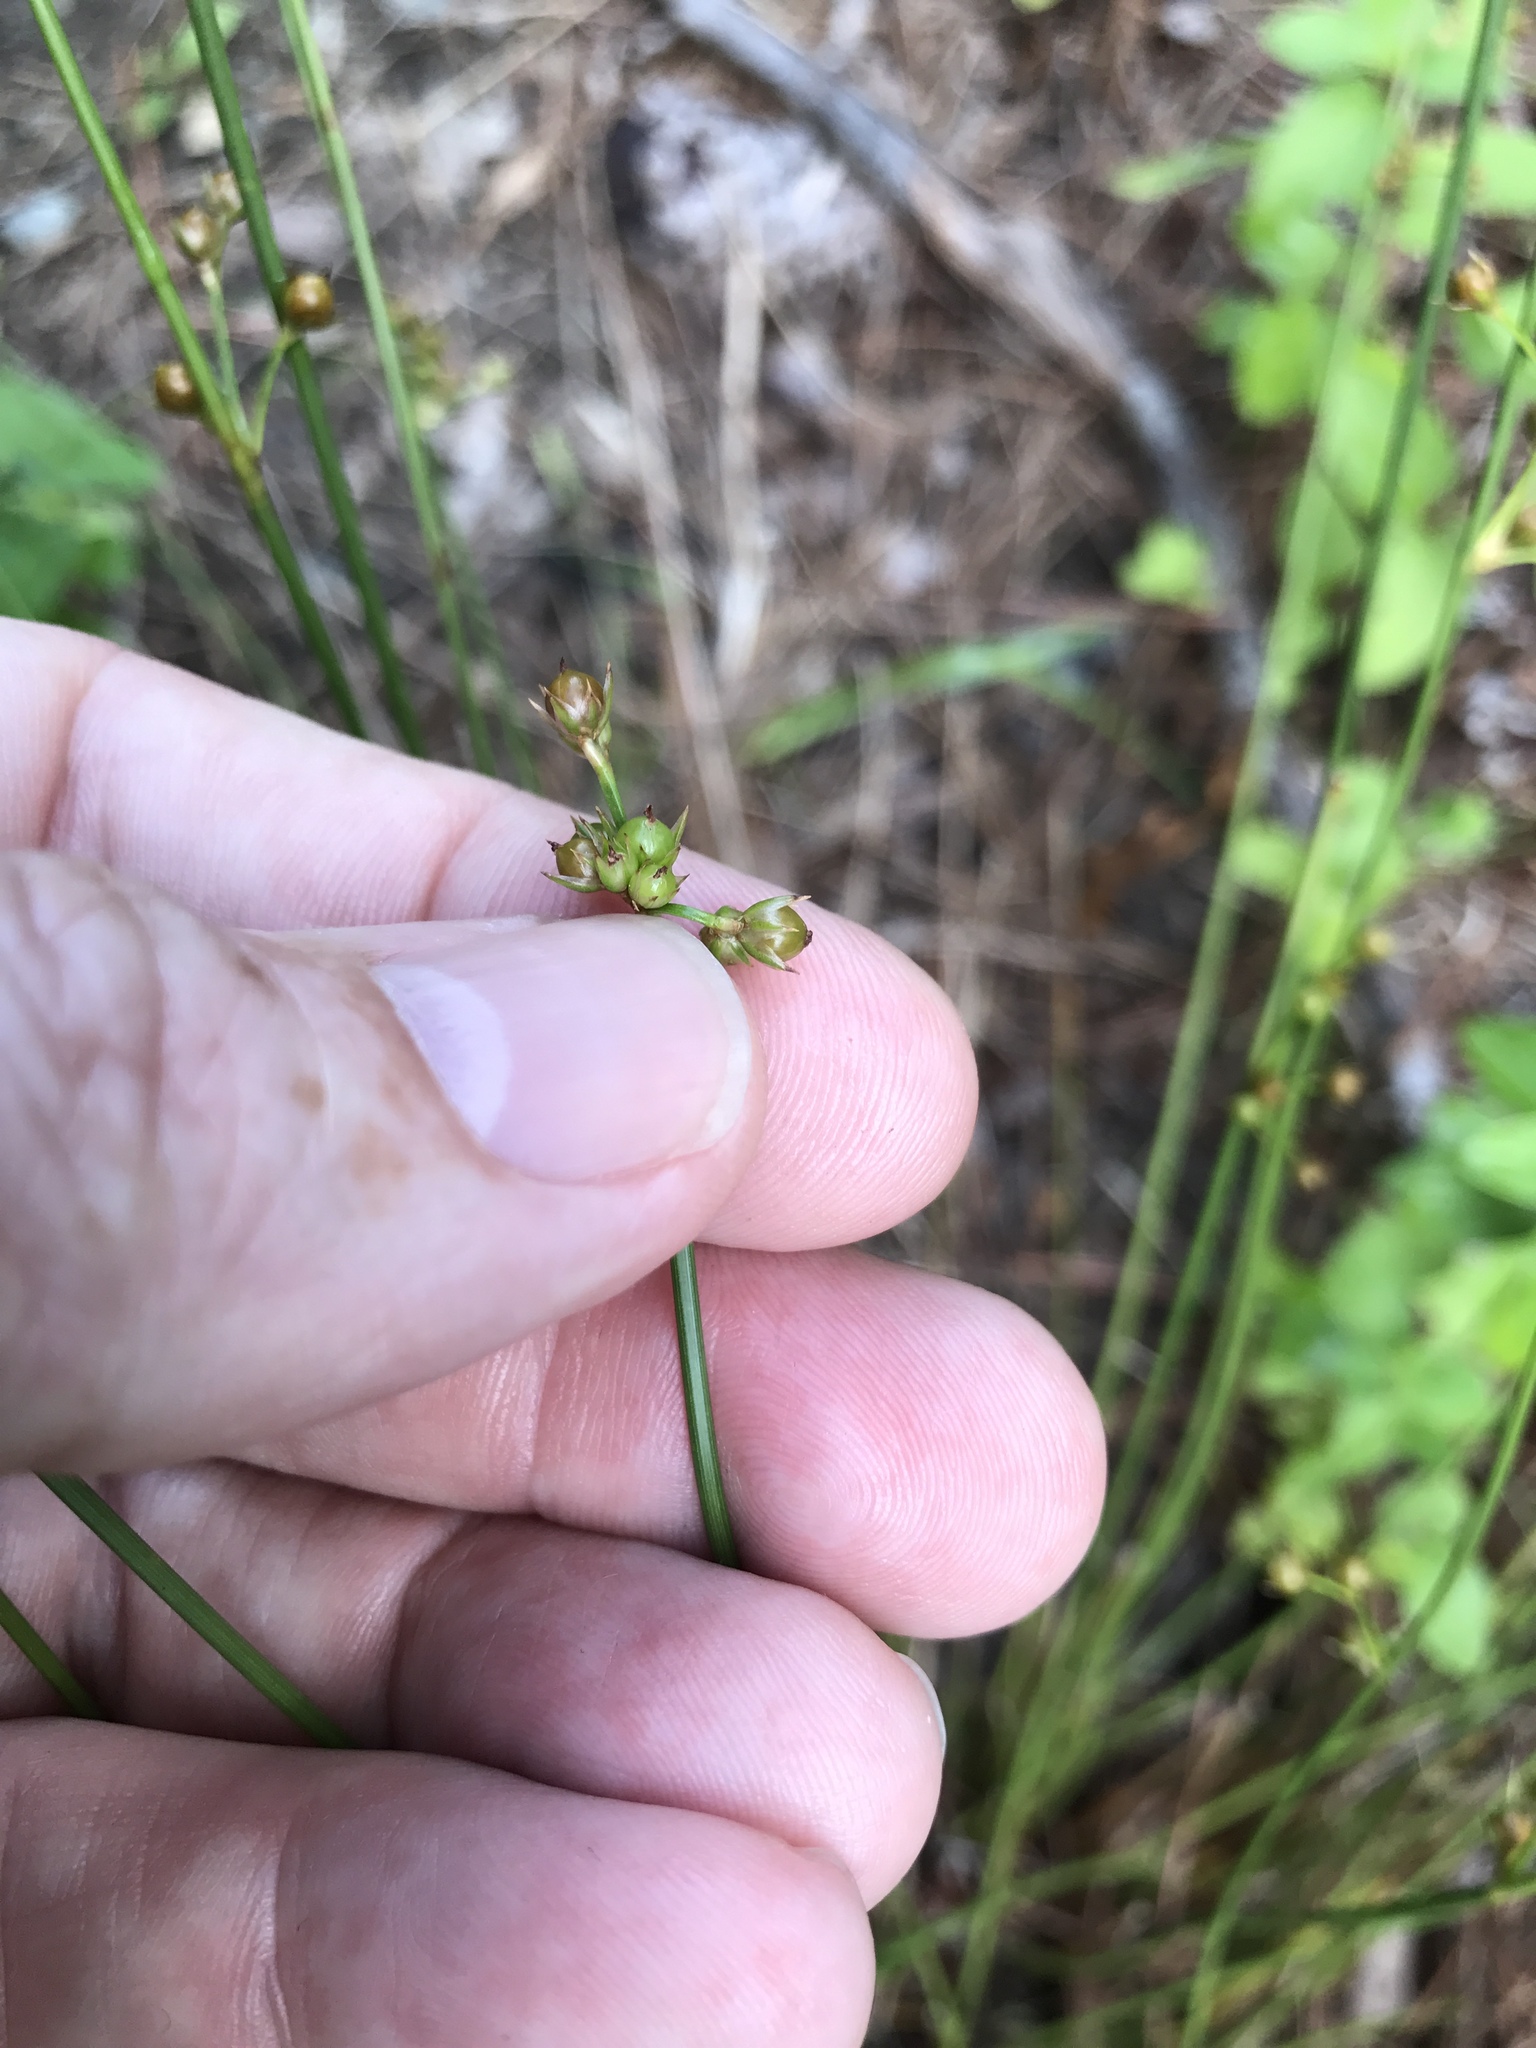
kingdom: Plantae
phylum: Tracheophyta
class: Liliopsida
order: Poales
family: Juncaceae
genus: Juncus
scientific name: Juncus coriaceus
